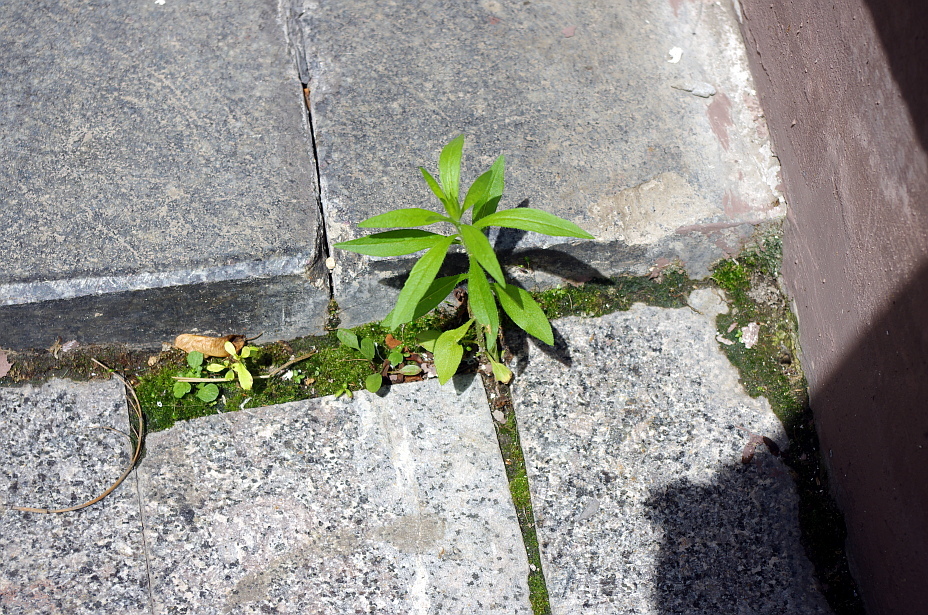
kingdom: Plantae
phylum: Tracheophyta
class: Magnoliopsida
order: Myrtales
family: Onagraceae
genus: Chamaenerion
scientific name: Chamaenerion angustifolium
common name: Fireweed
